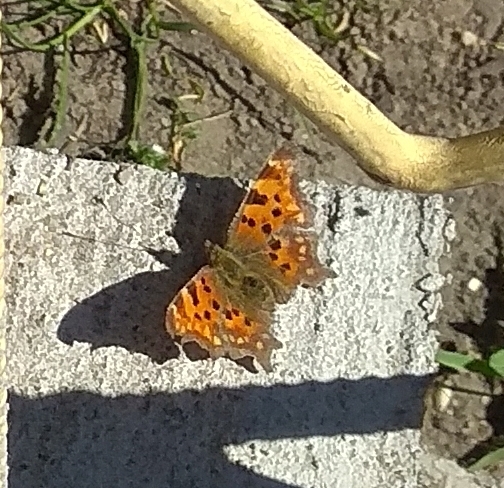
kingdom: Animalia
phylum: Arthropoda
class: Insecta
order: Lepidoptera
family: Nymphalidae
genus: Polygonia
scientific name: Polygonia c-album
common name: Comma
